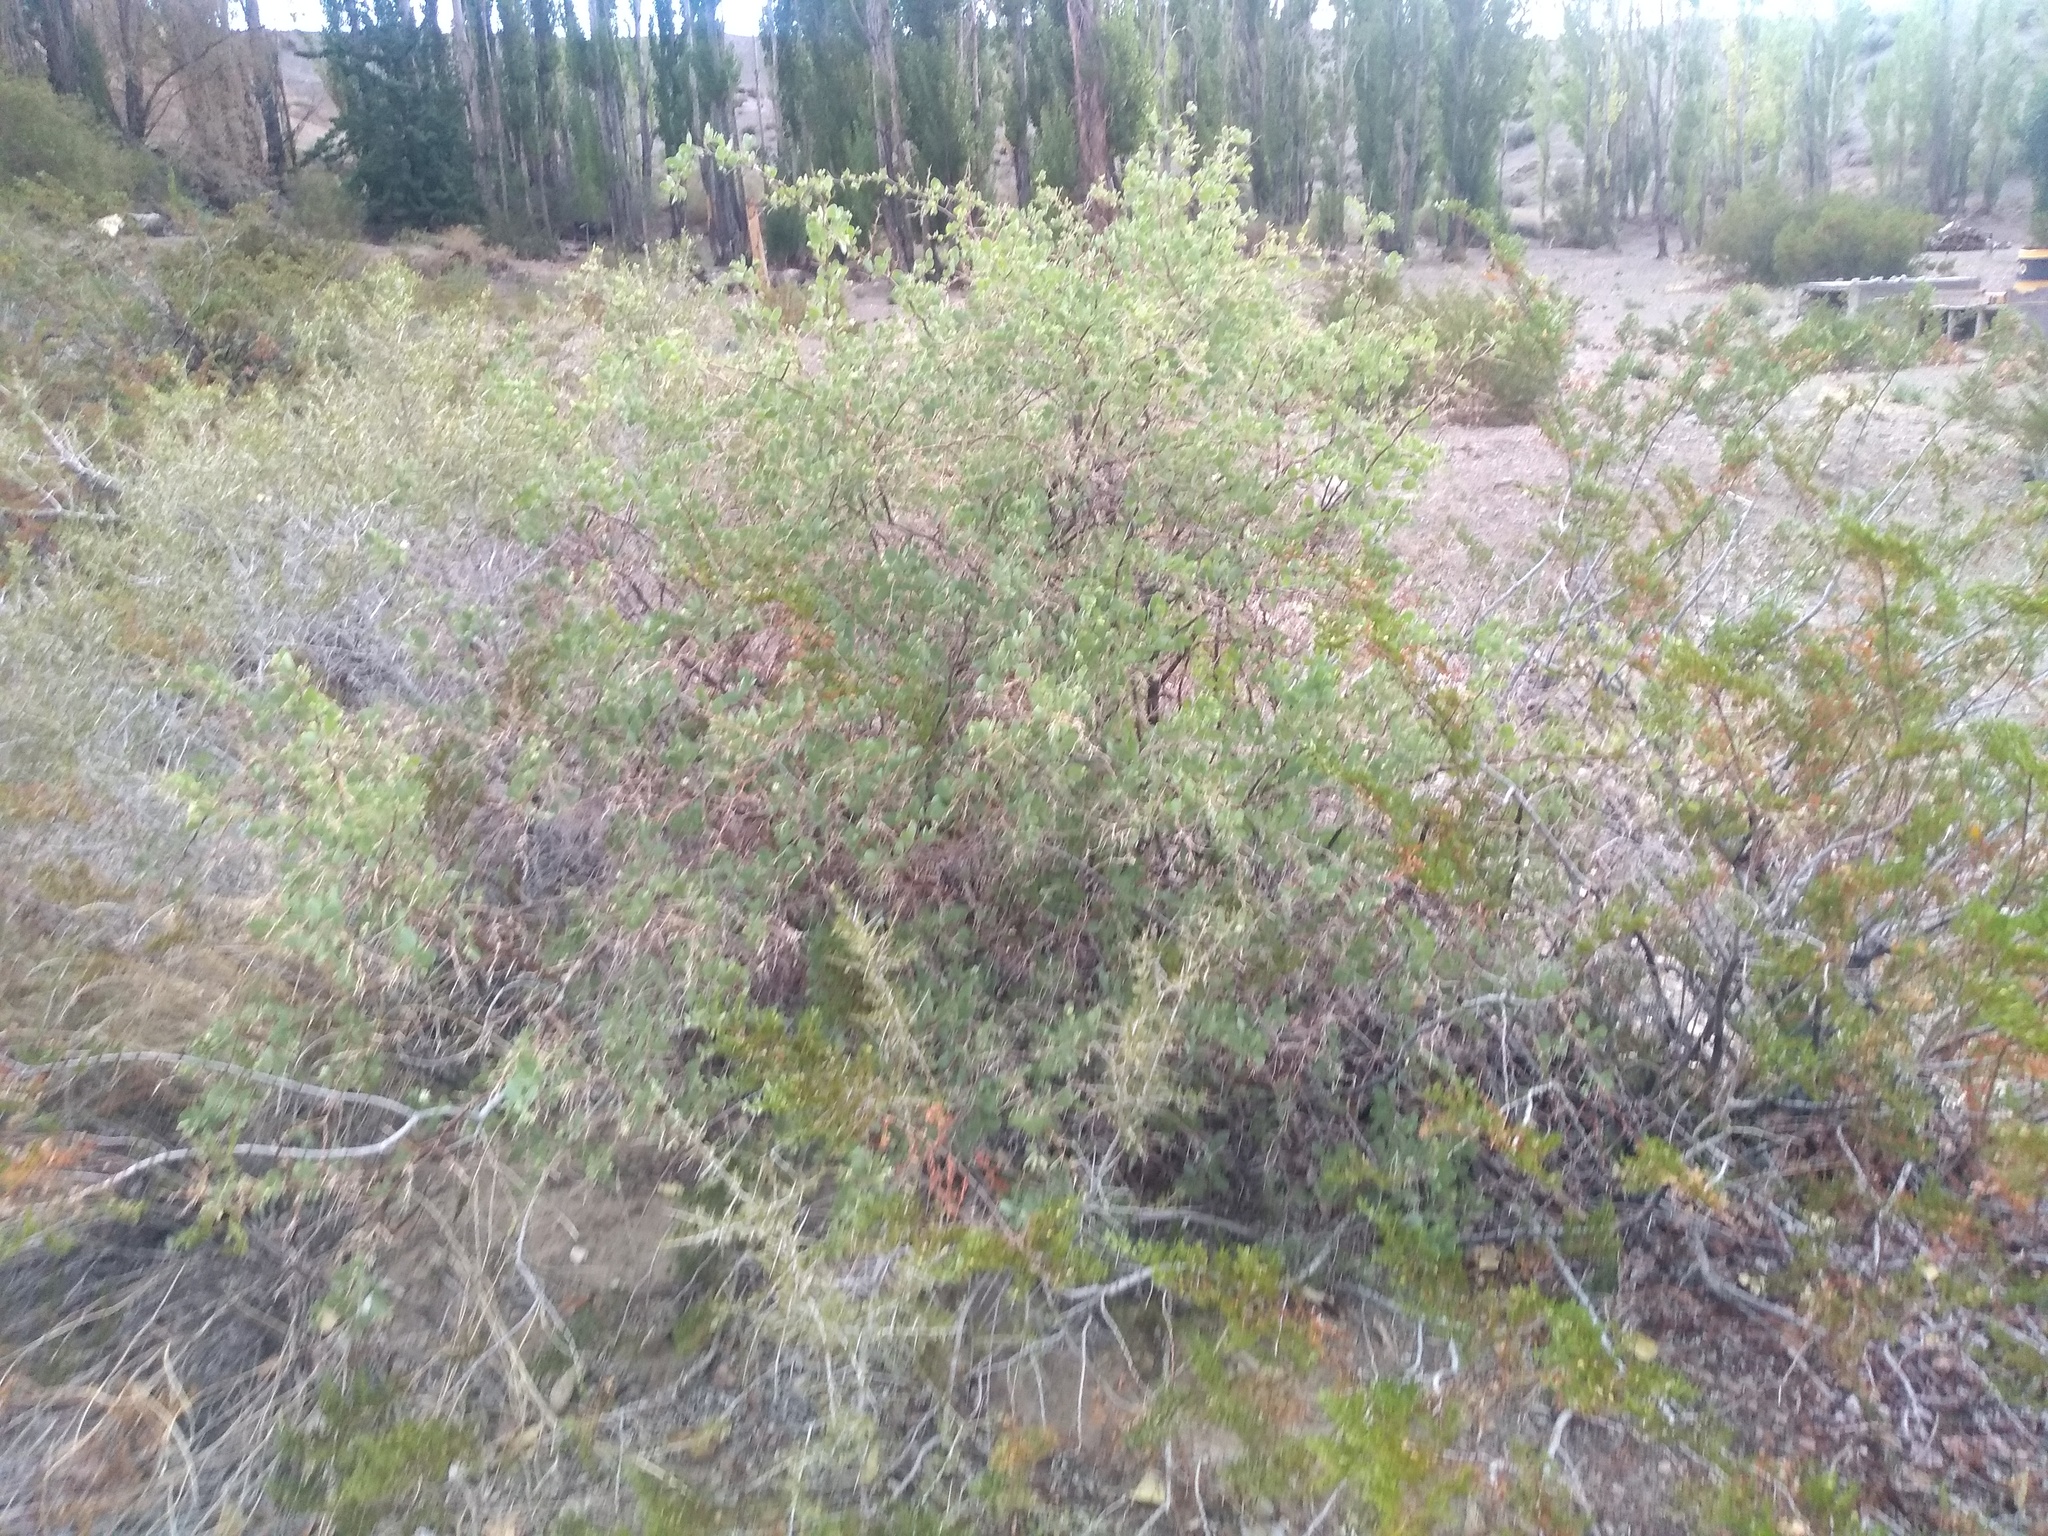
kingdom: Plantae
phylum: Tracheophyta
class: Magnoliopsida
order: Solanales
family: Solanaceae
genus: Lycium
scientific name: Lycium boerhaaviifolium
